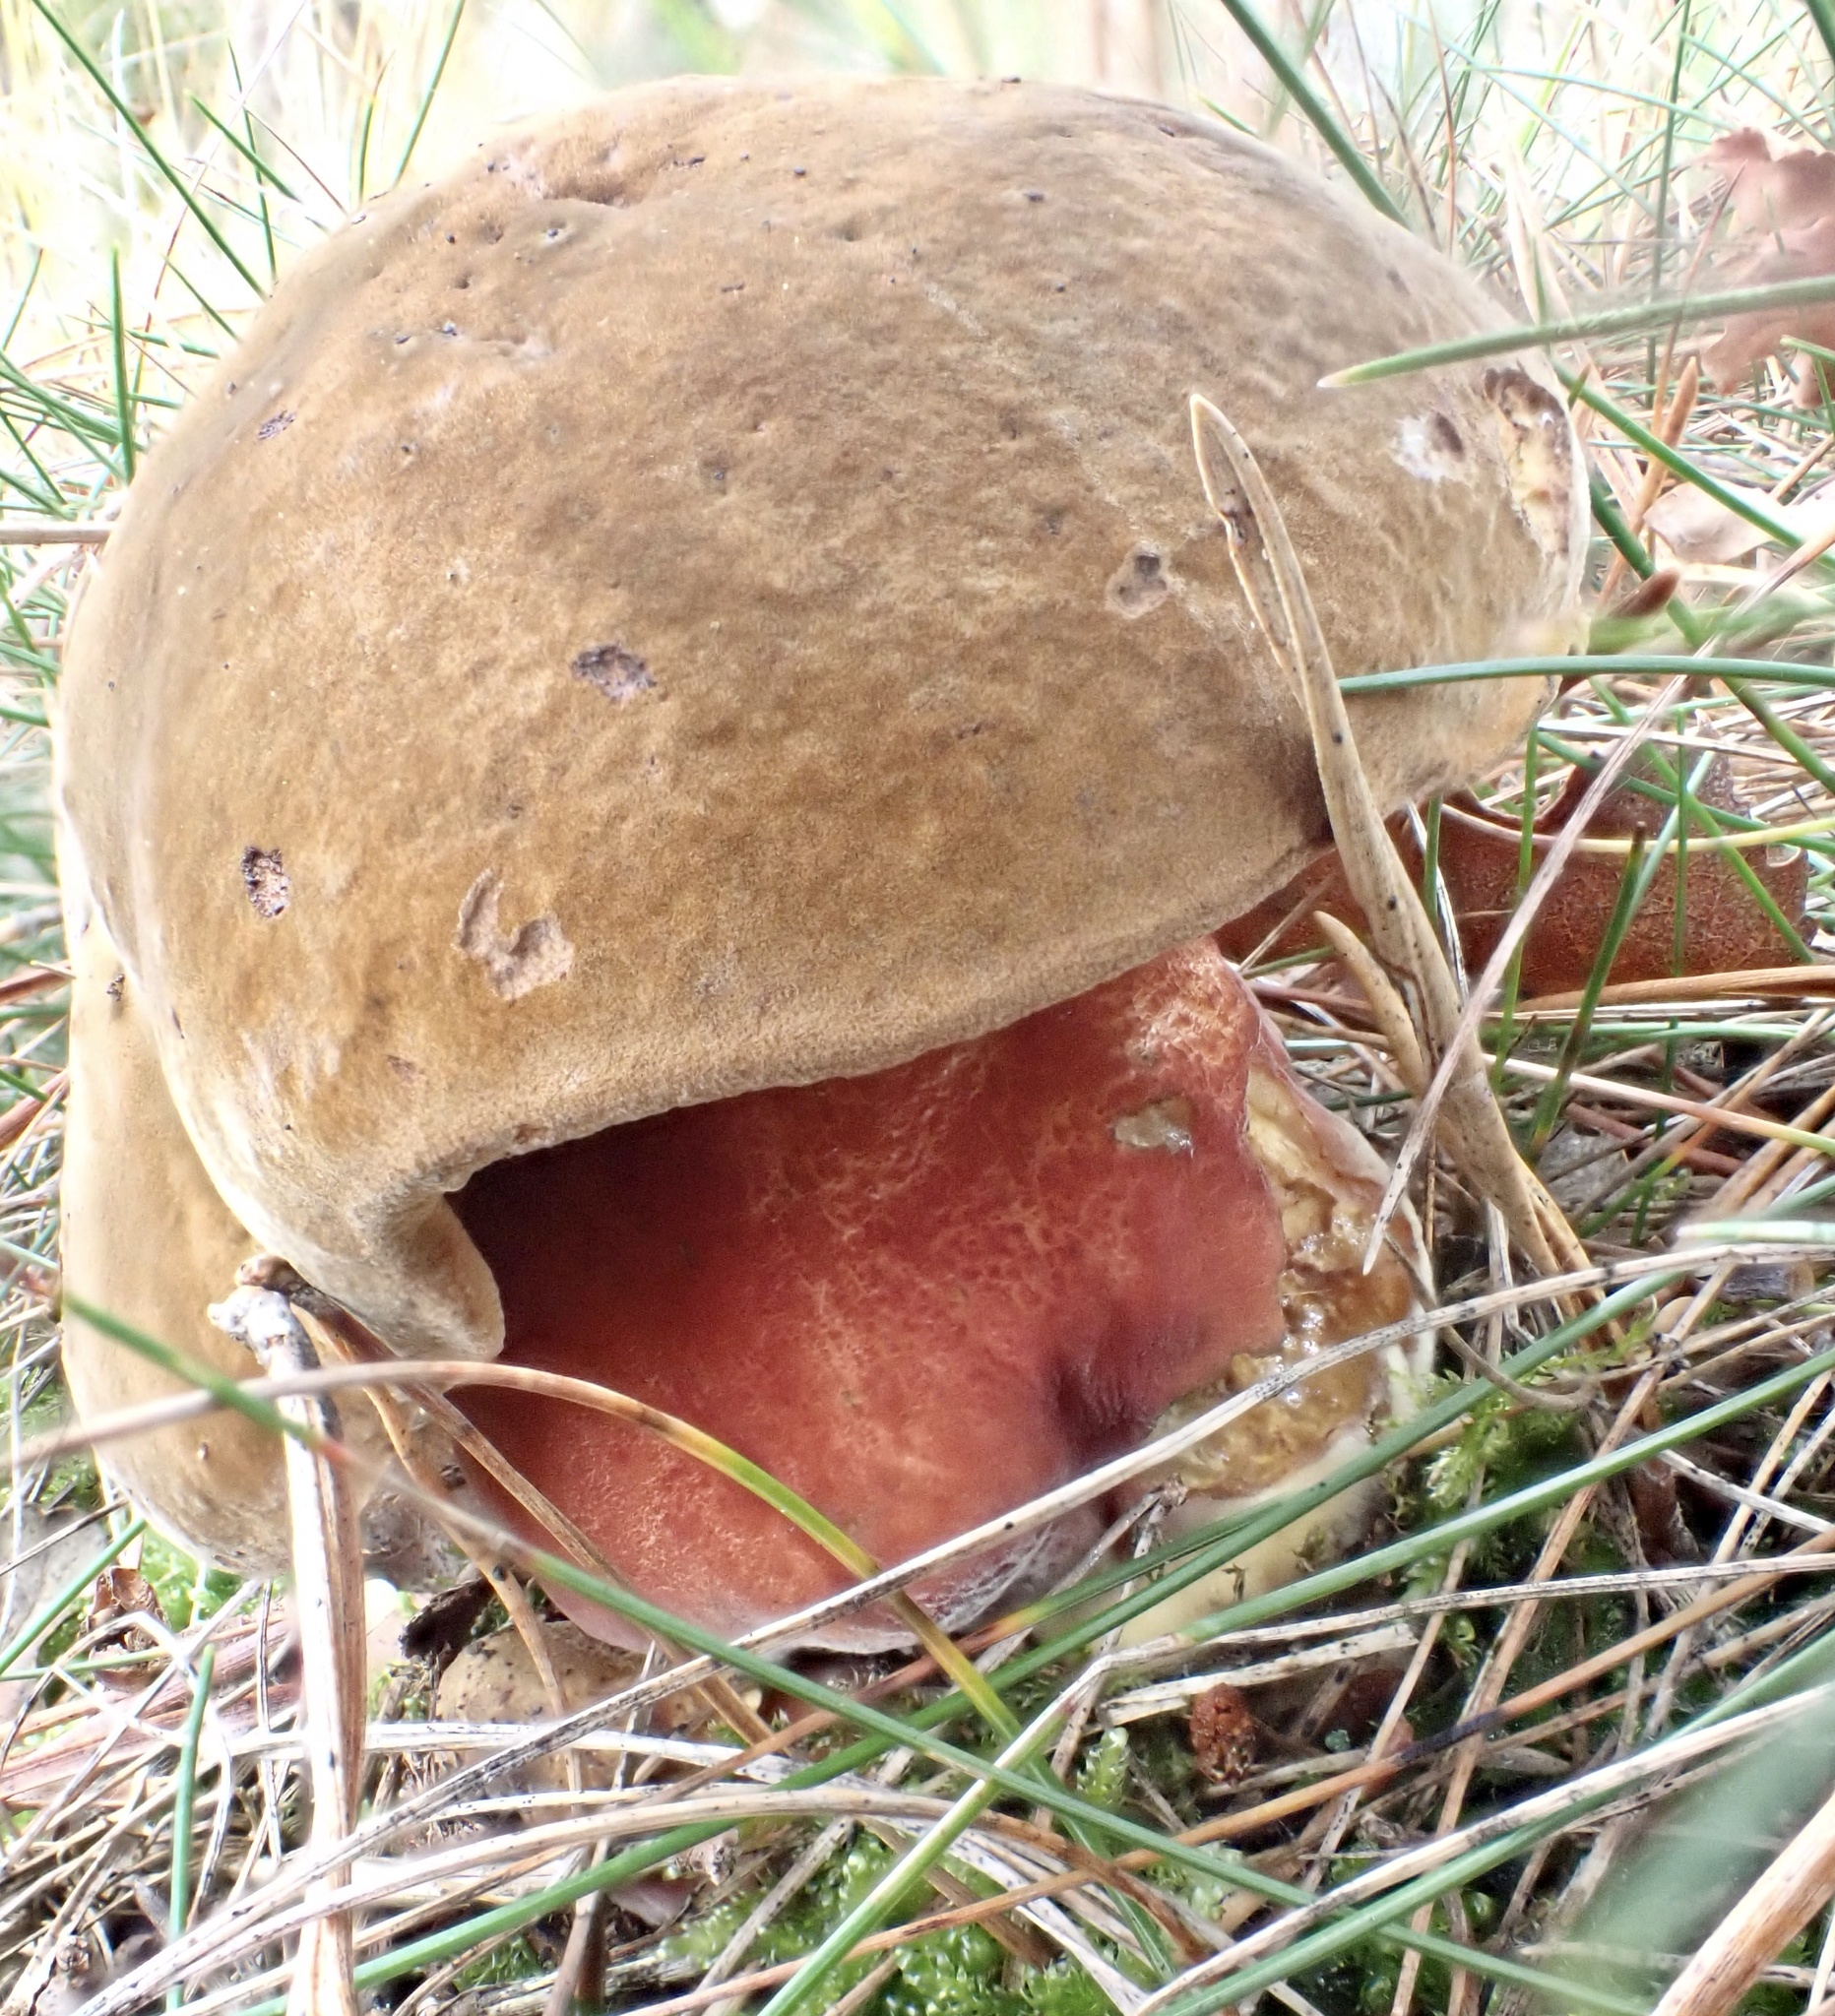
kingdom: Fungi
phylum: Basidiomycota
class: Agaricomycetes
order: Boletales
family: Boletaceae
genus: Neoboletus
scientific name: Neoboletus erythropus
